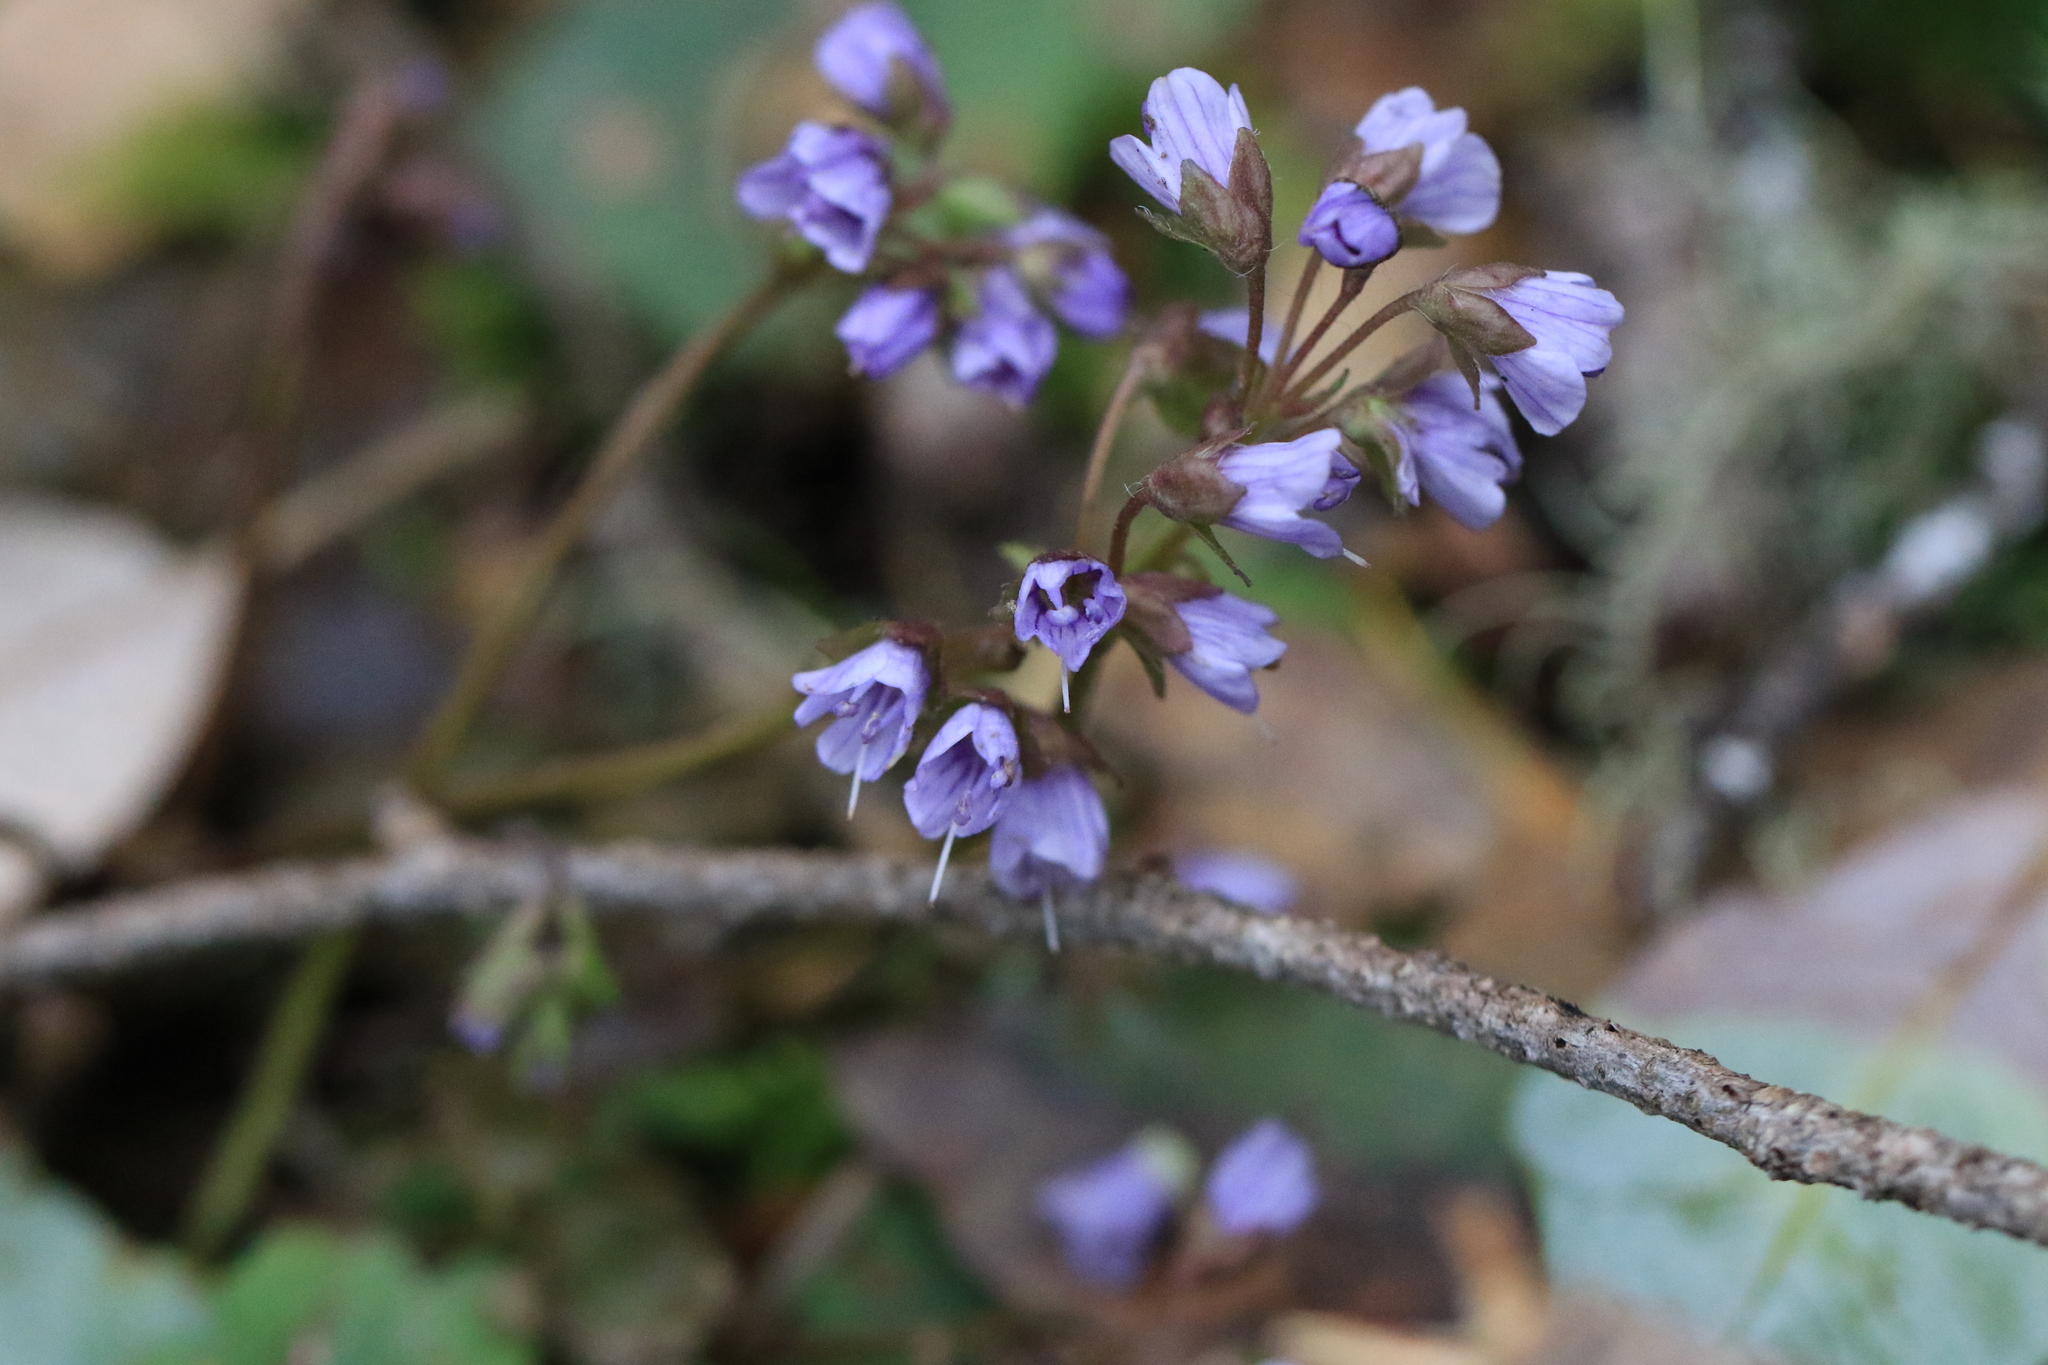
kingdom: Plantae
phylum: Tracheophyta
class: Magnoliopsida
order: Lamiales
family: Plantaginaceae
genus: Synthyris
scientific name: Synthyris reniformis
